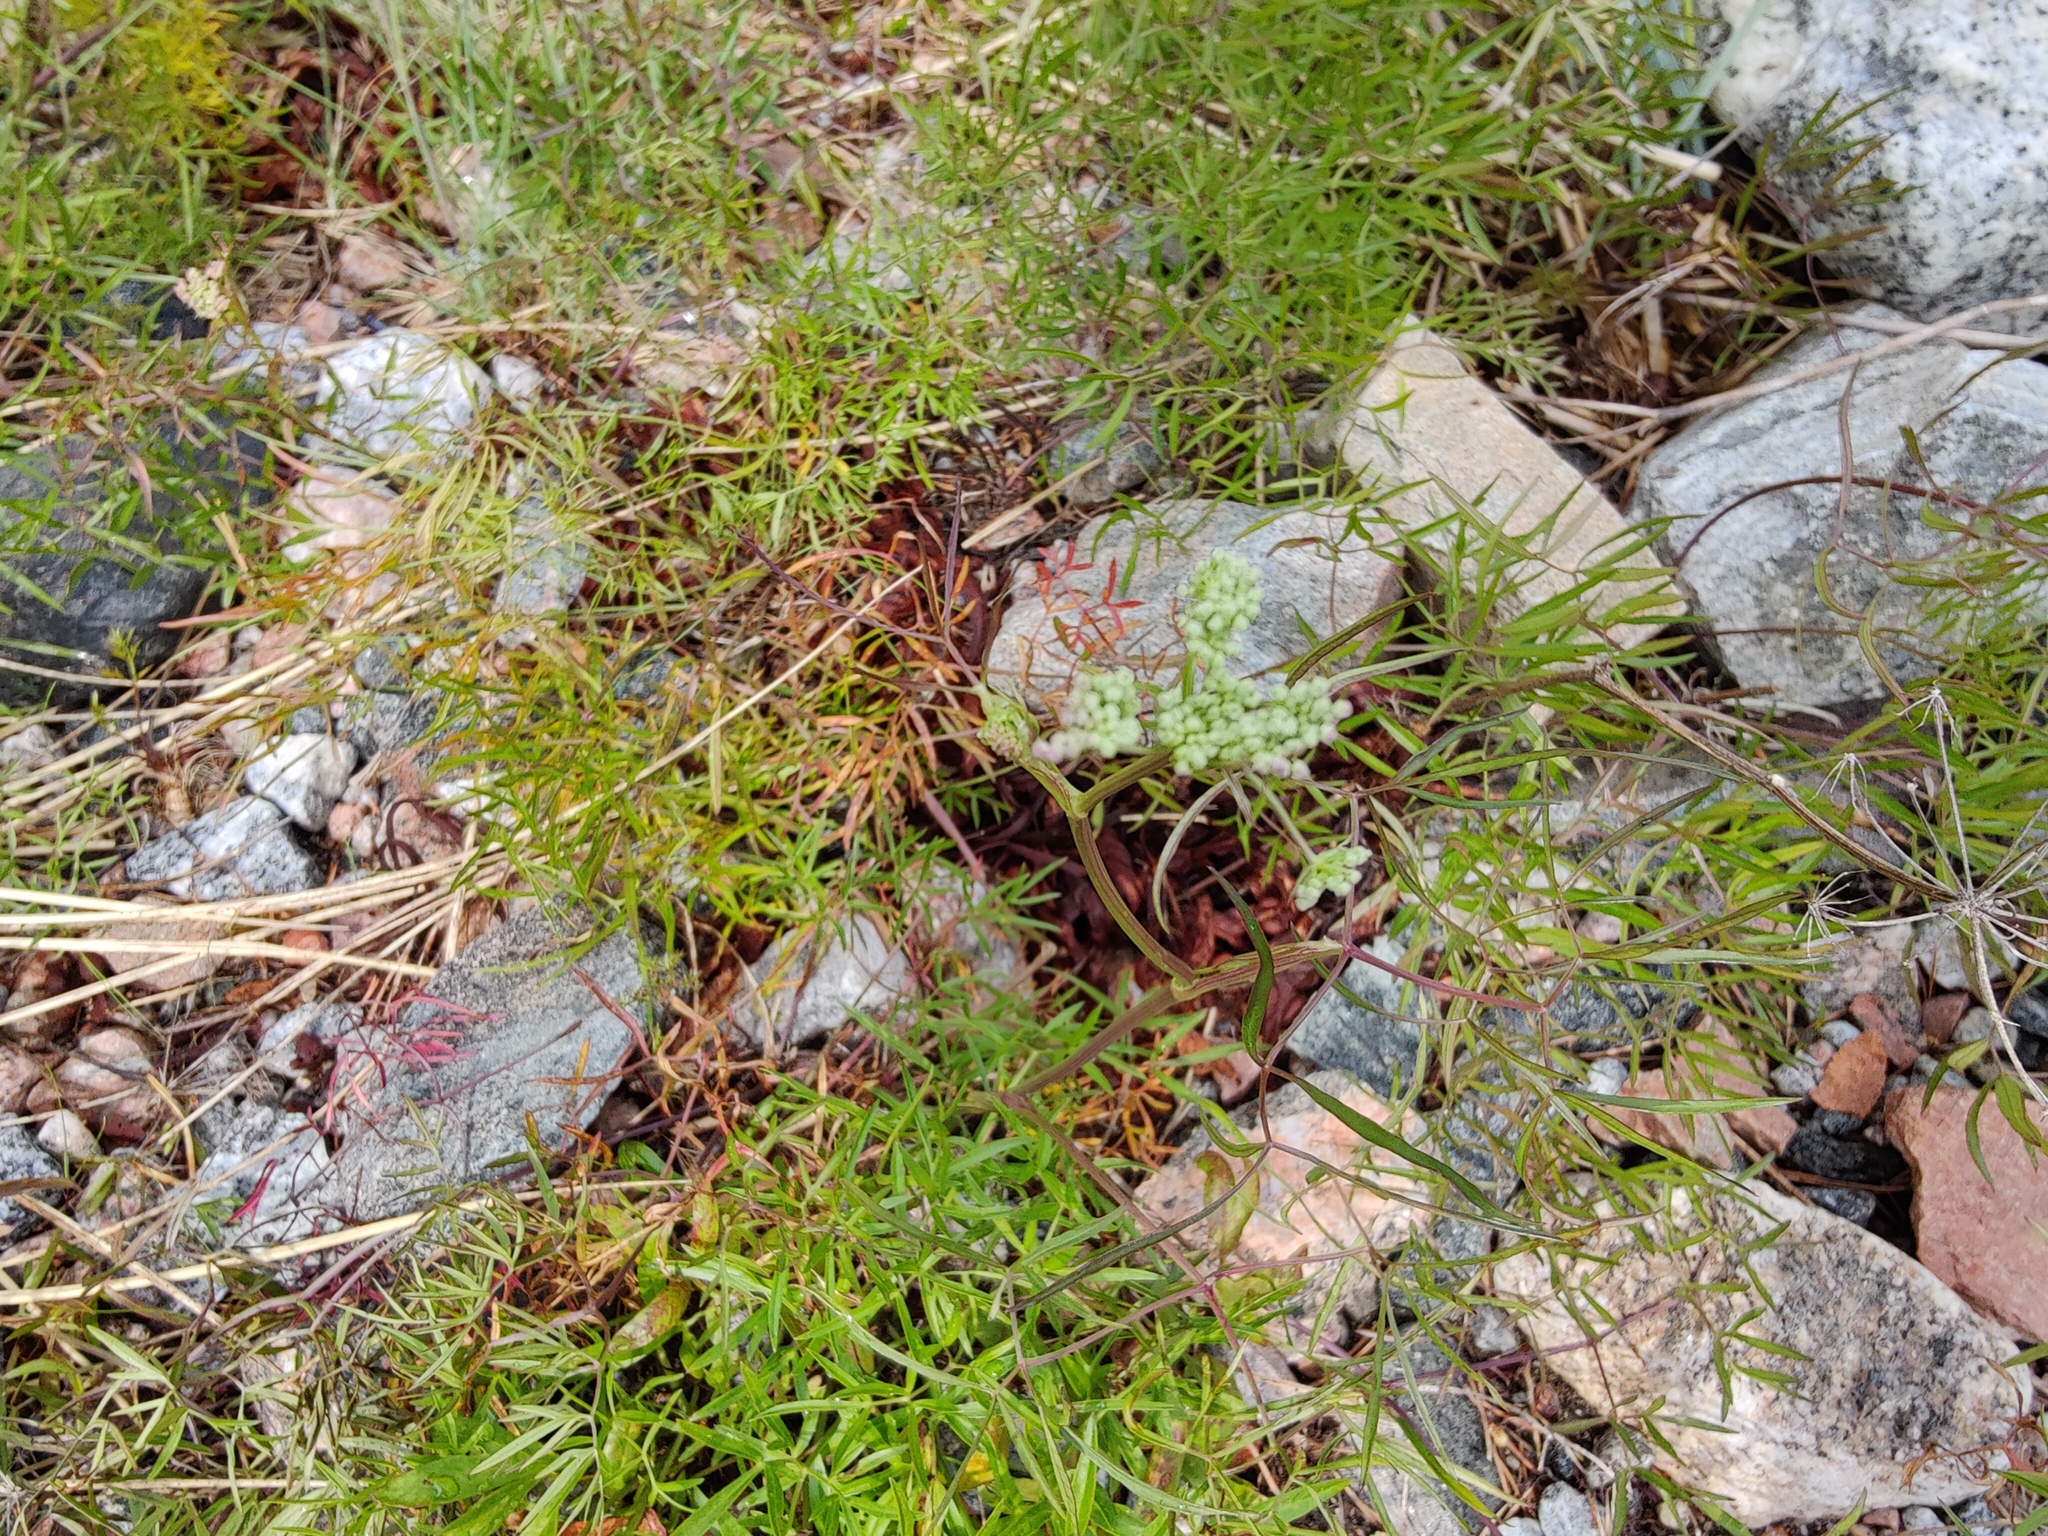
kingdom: Plantae
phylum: Tracheophyta
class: Magnoliopsida
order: Apiales
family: Apiaceae
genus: Cenolophium
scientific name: Cenolophium fischeri
